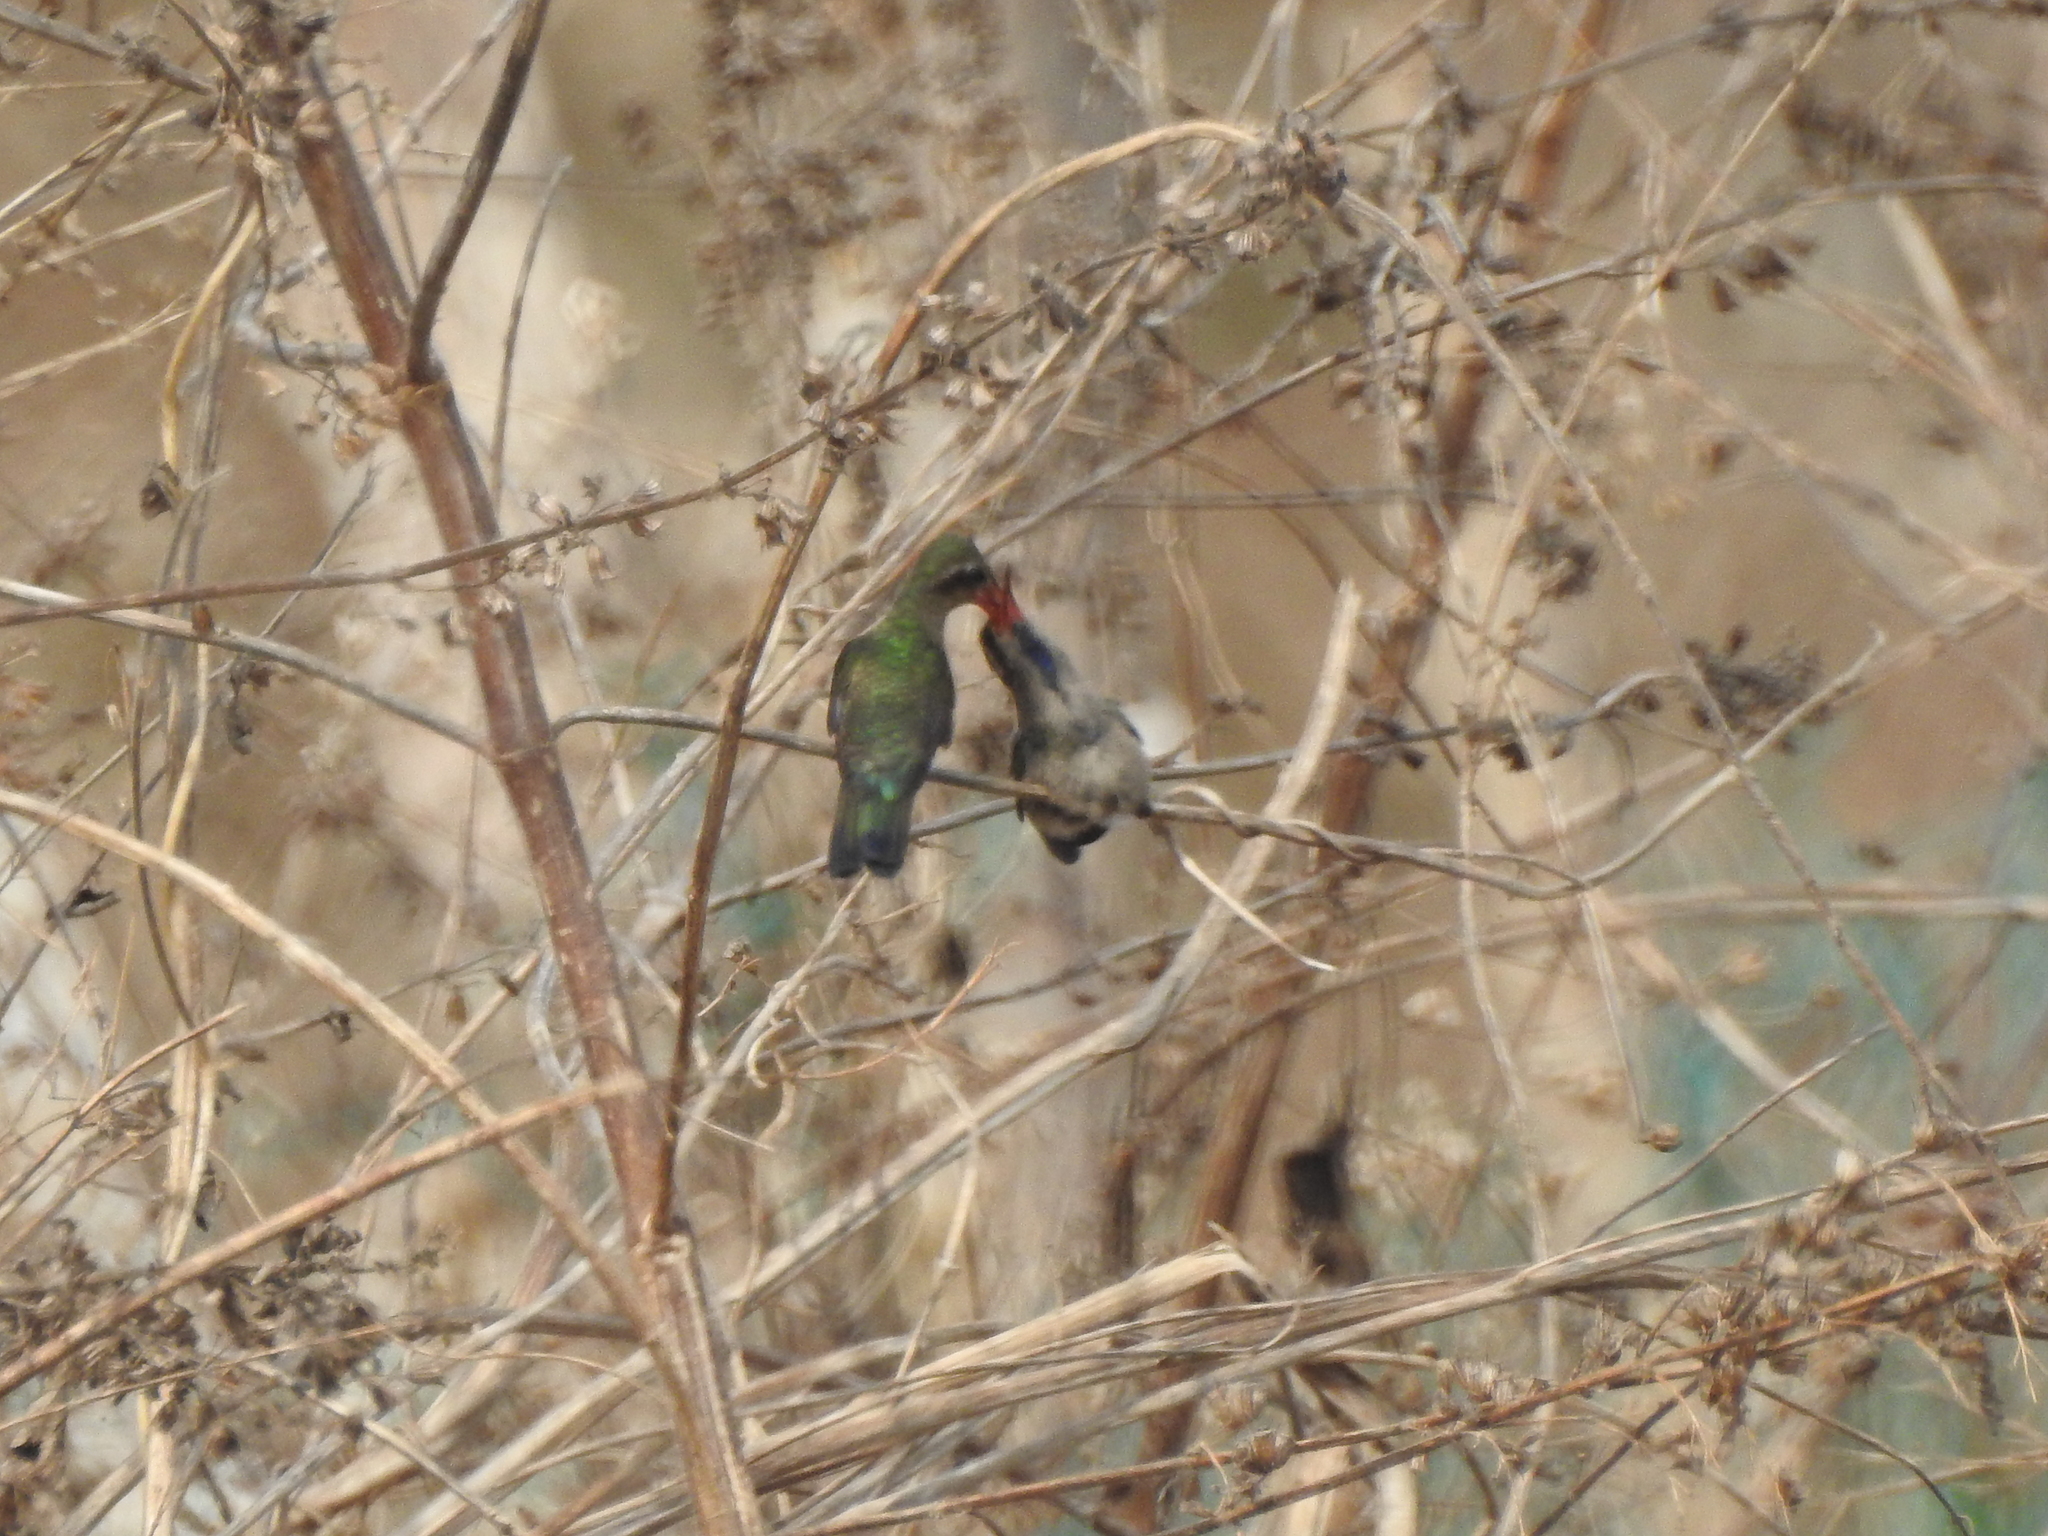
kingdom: Animalia
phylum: Chordata
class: Aves
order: Apodiformes
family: Trochilidae
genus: Cynanthus
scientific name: Cynanthus doubledayi
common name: Doubleday's hummingbird
